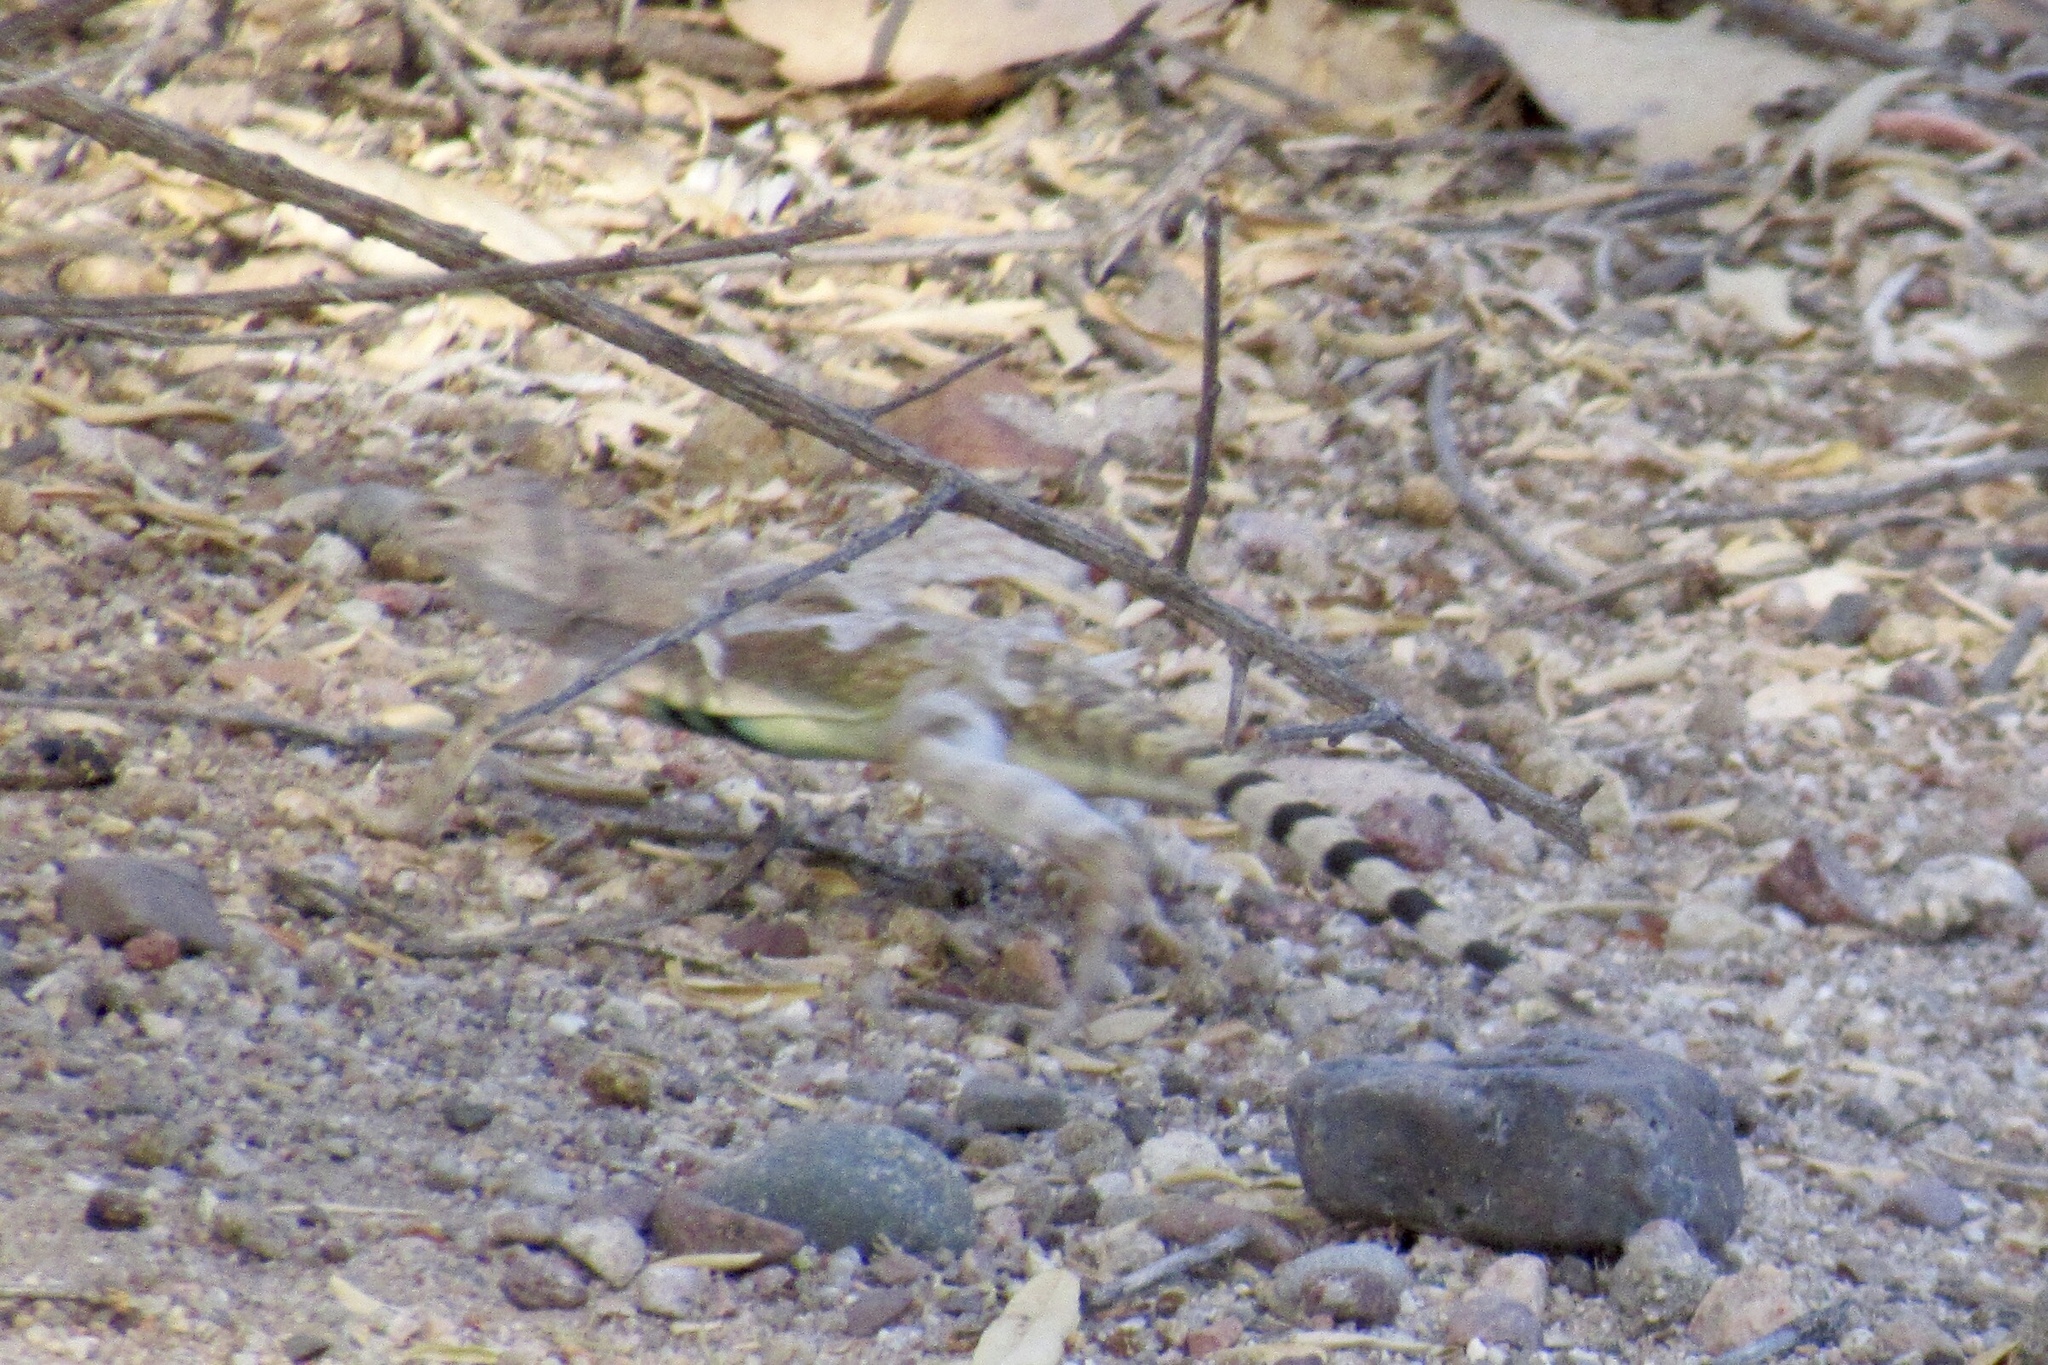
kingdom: Animalia
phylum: Chordata
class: Squamata
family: Phrynosomatidae
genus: Callisaurus
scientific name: Callisaurus draconoides
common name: Zebra-tailed lizard
